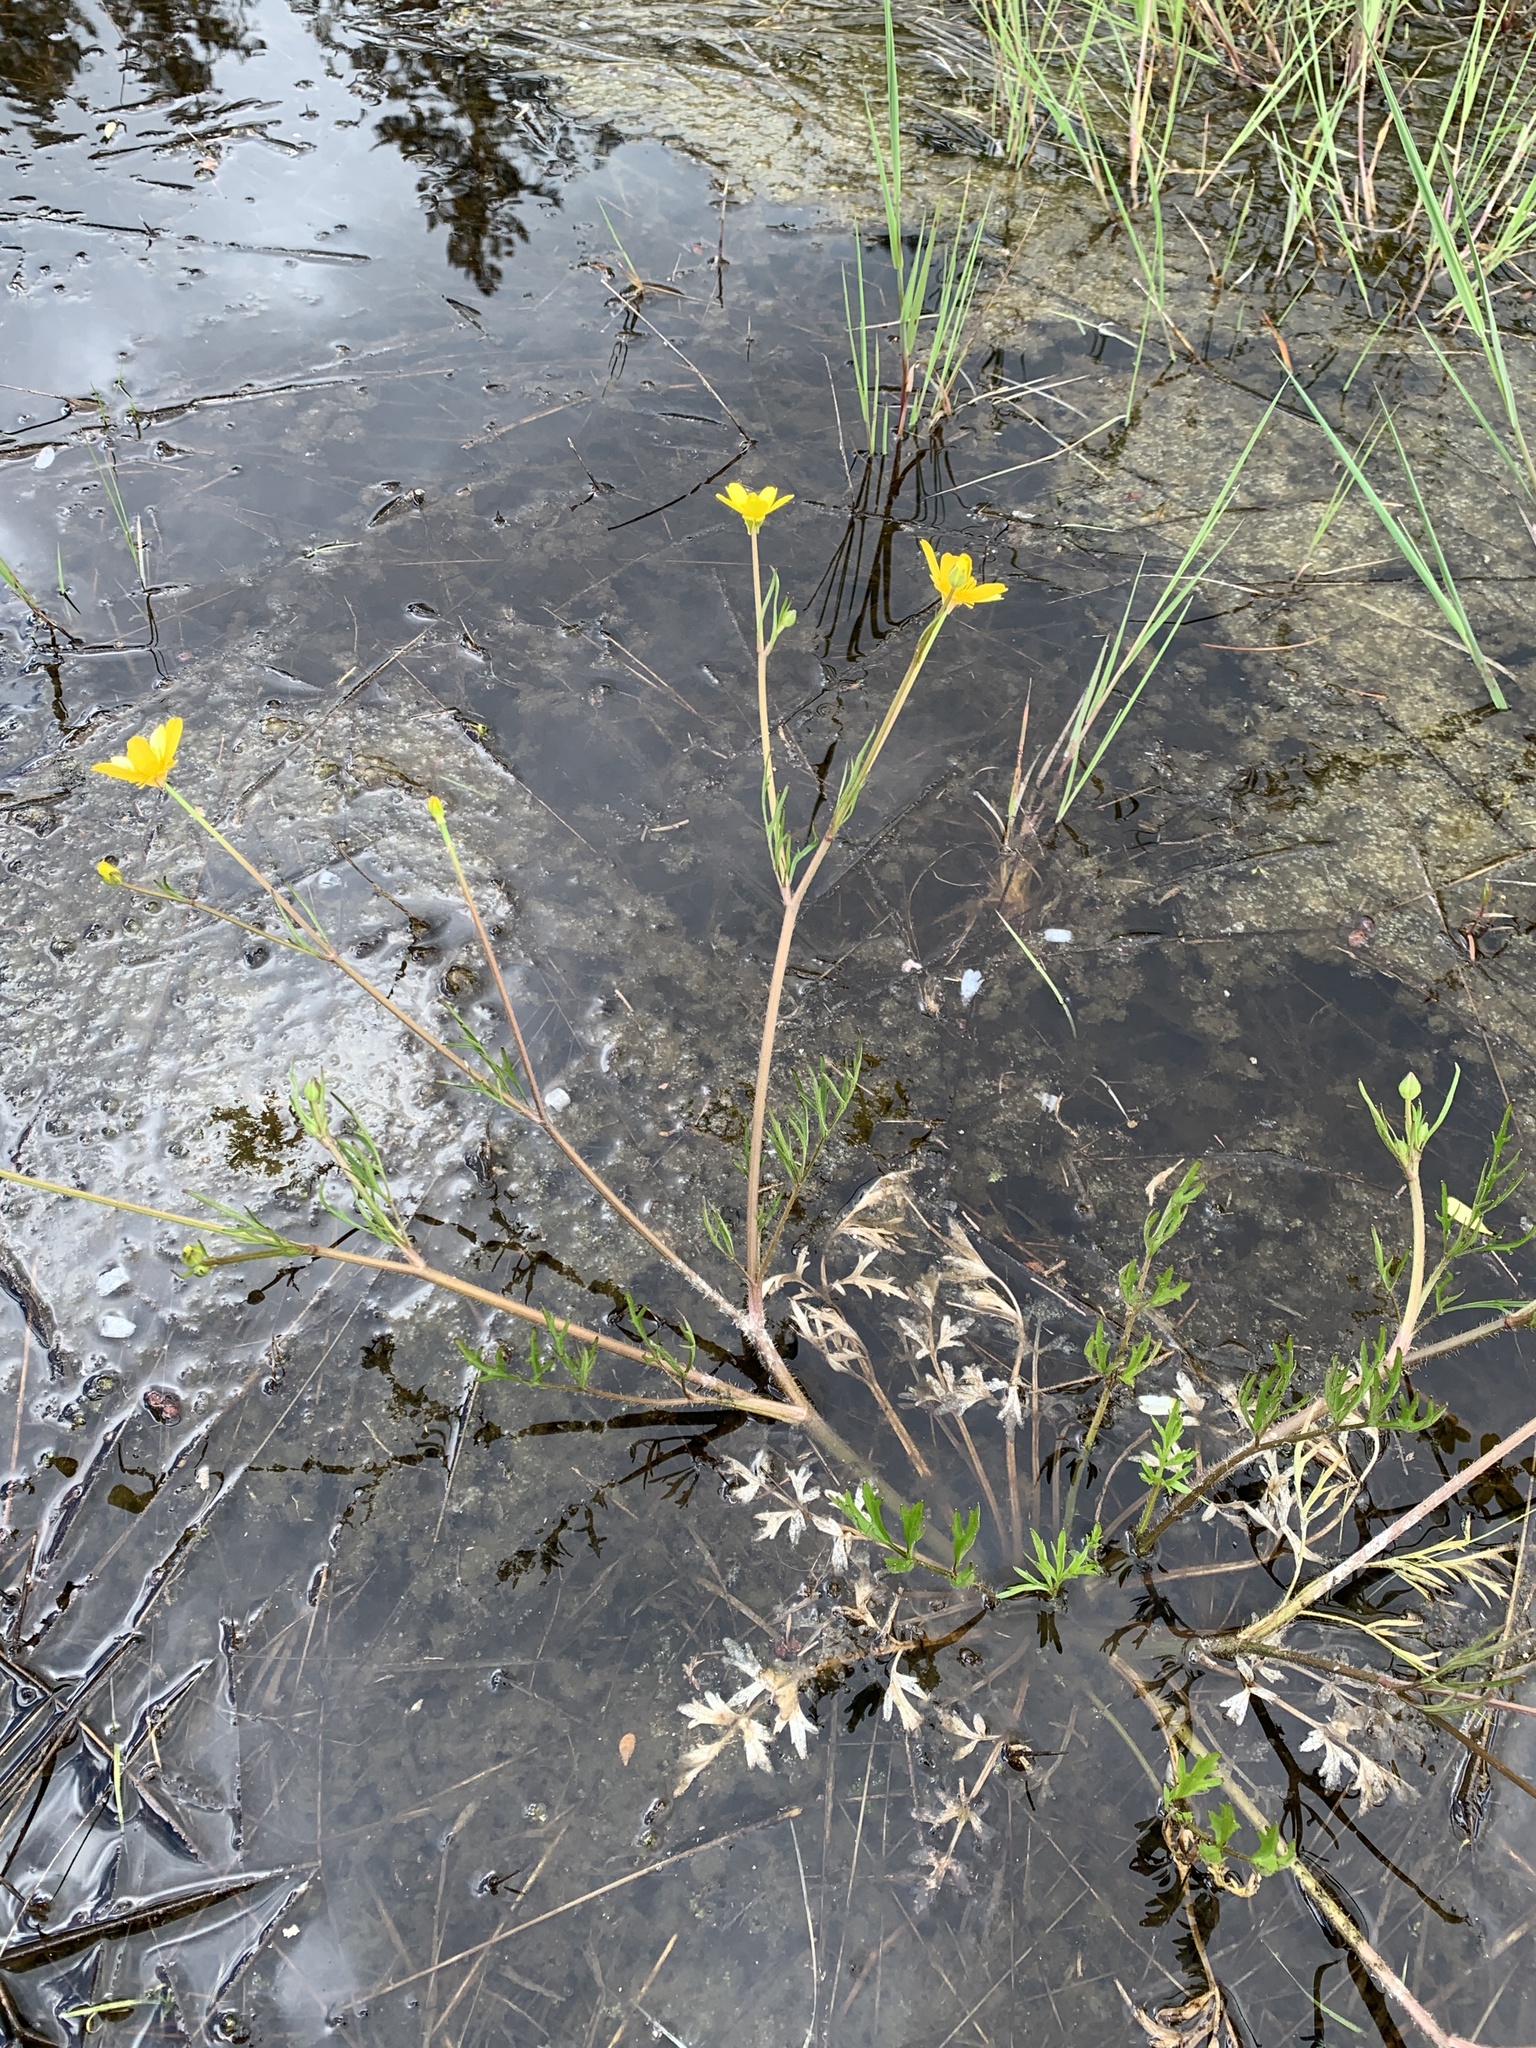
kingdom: Plantae
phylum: Tracheophyta
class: Magnoliopsida
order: Ranunculales
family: Ranunculaceae
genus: Ranunculus
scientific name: Ranunculus orthorhynchus
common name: Straight-beak buttercup
